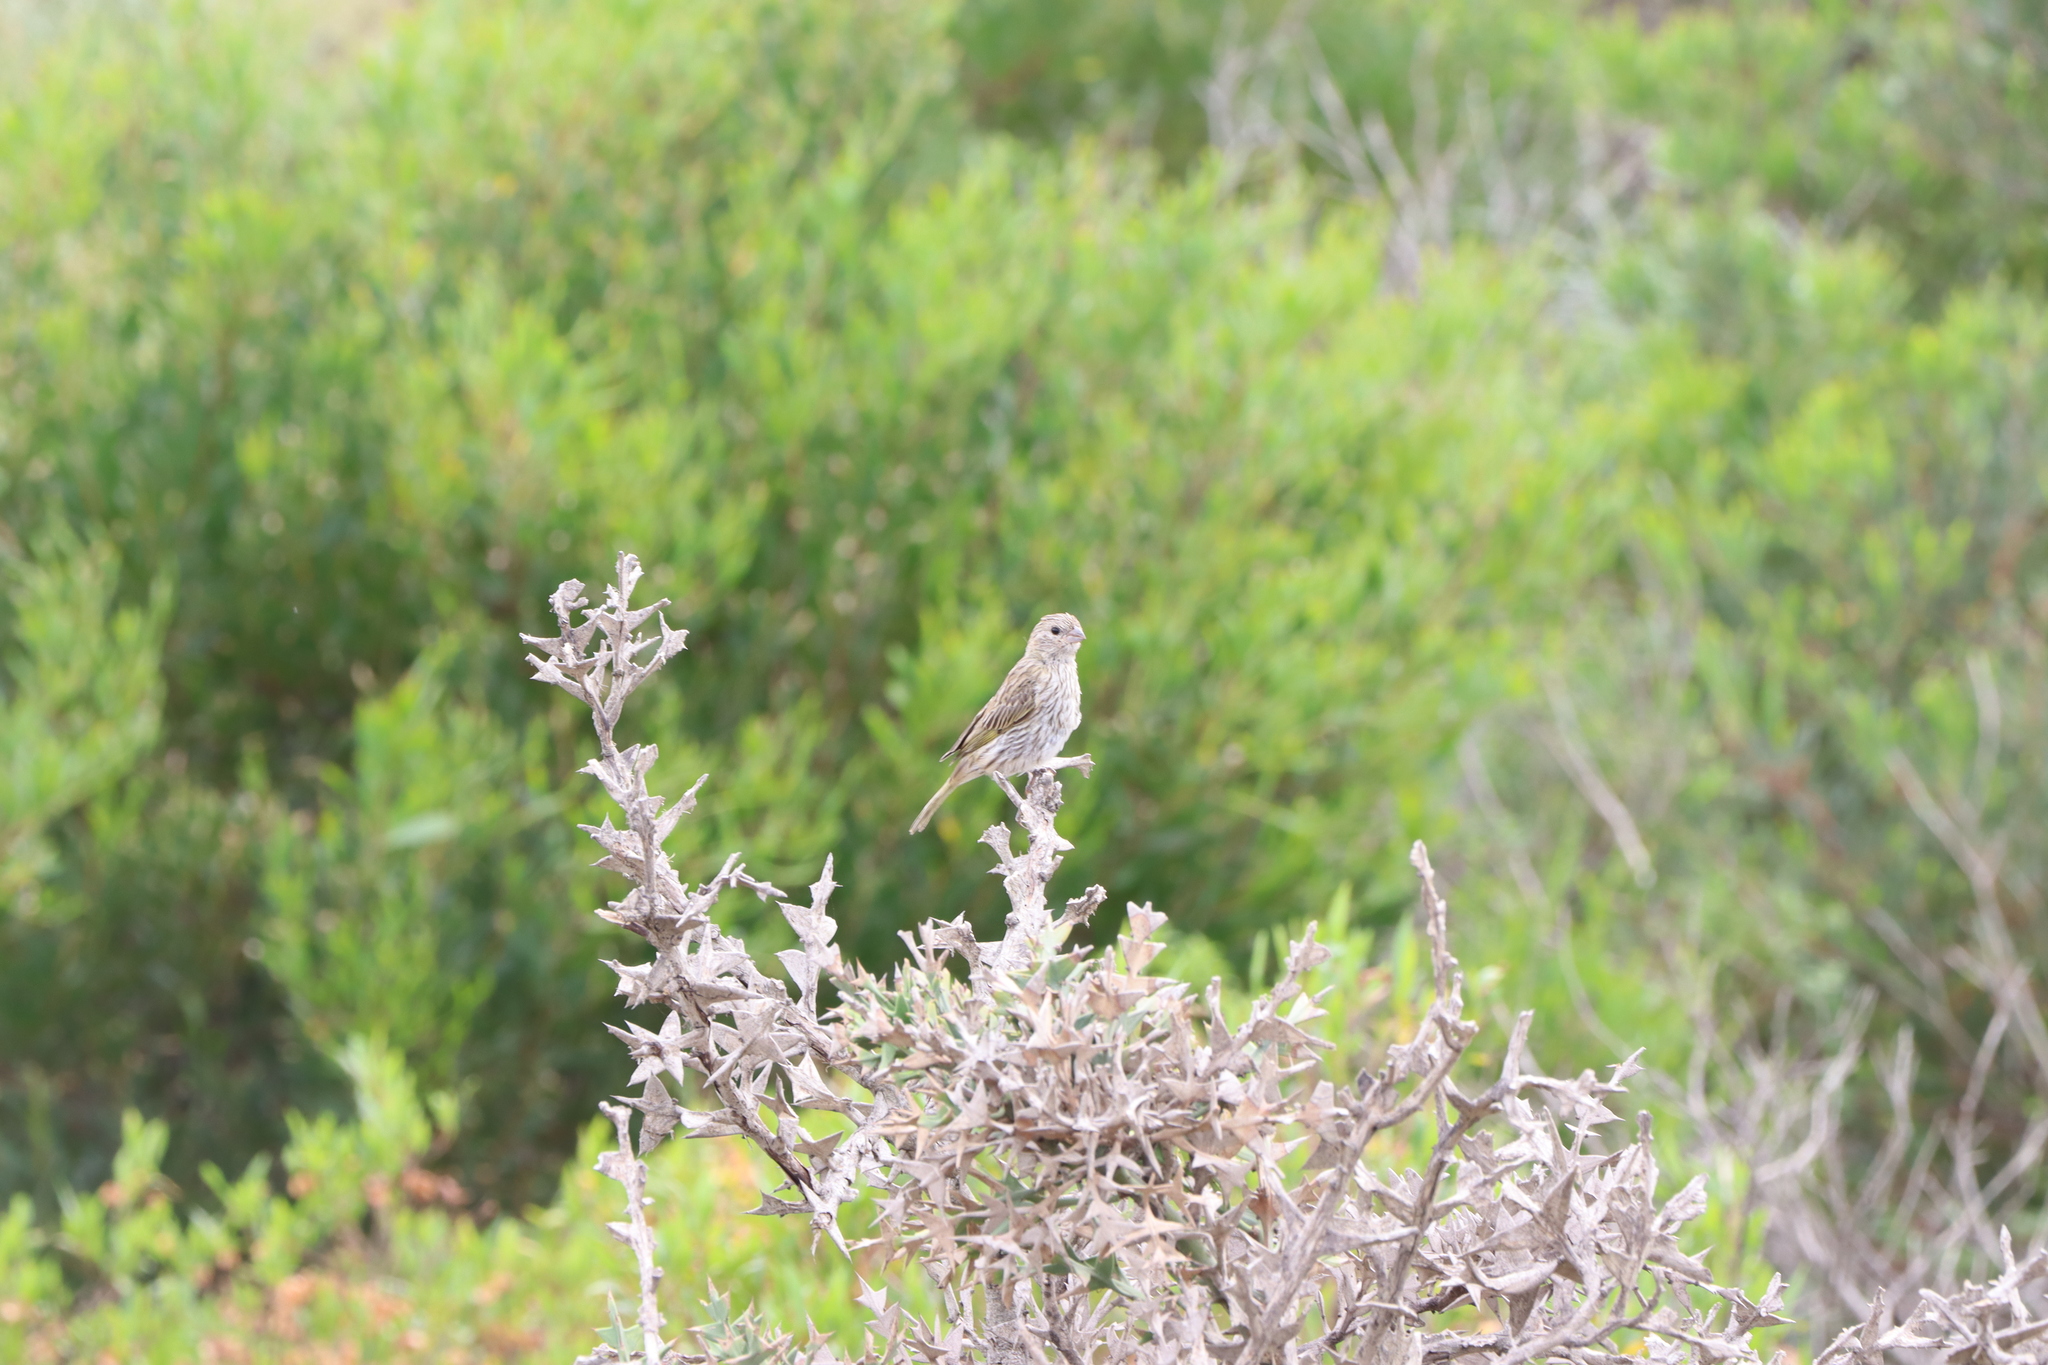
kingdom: Animalia
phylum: Chordata
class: Aves
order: Passeriformes
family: Thraupidae
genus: Sicalis
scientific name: Sicalis flaveola
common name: Saffron finch
